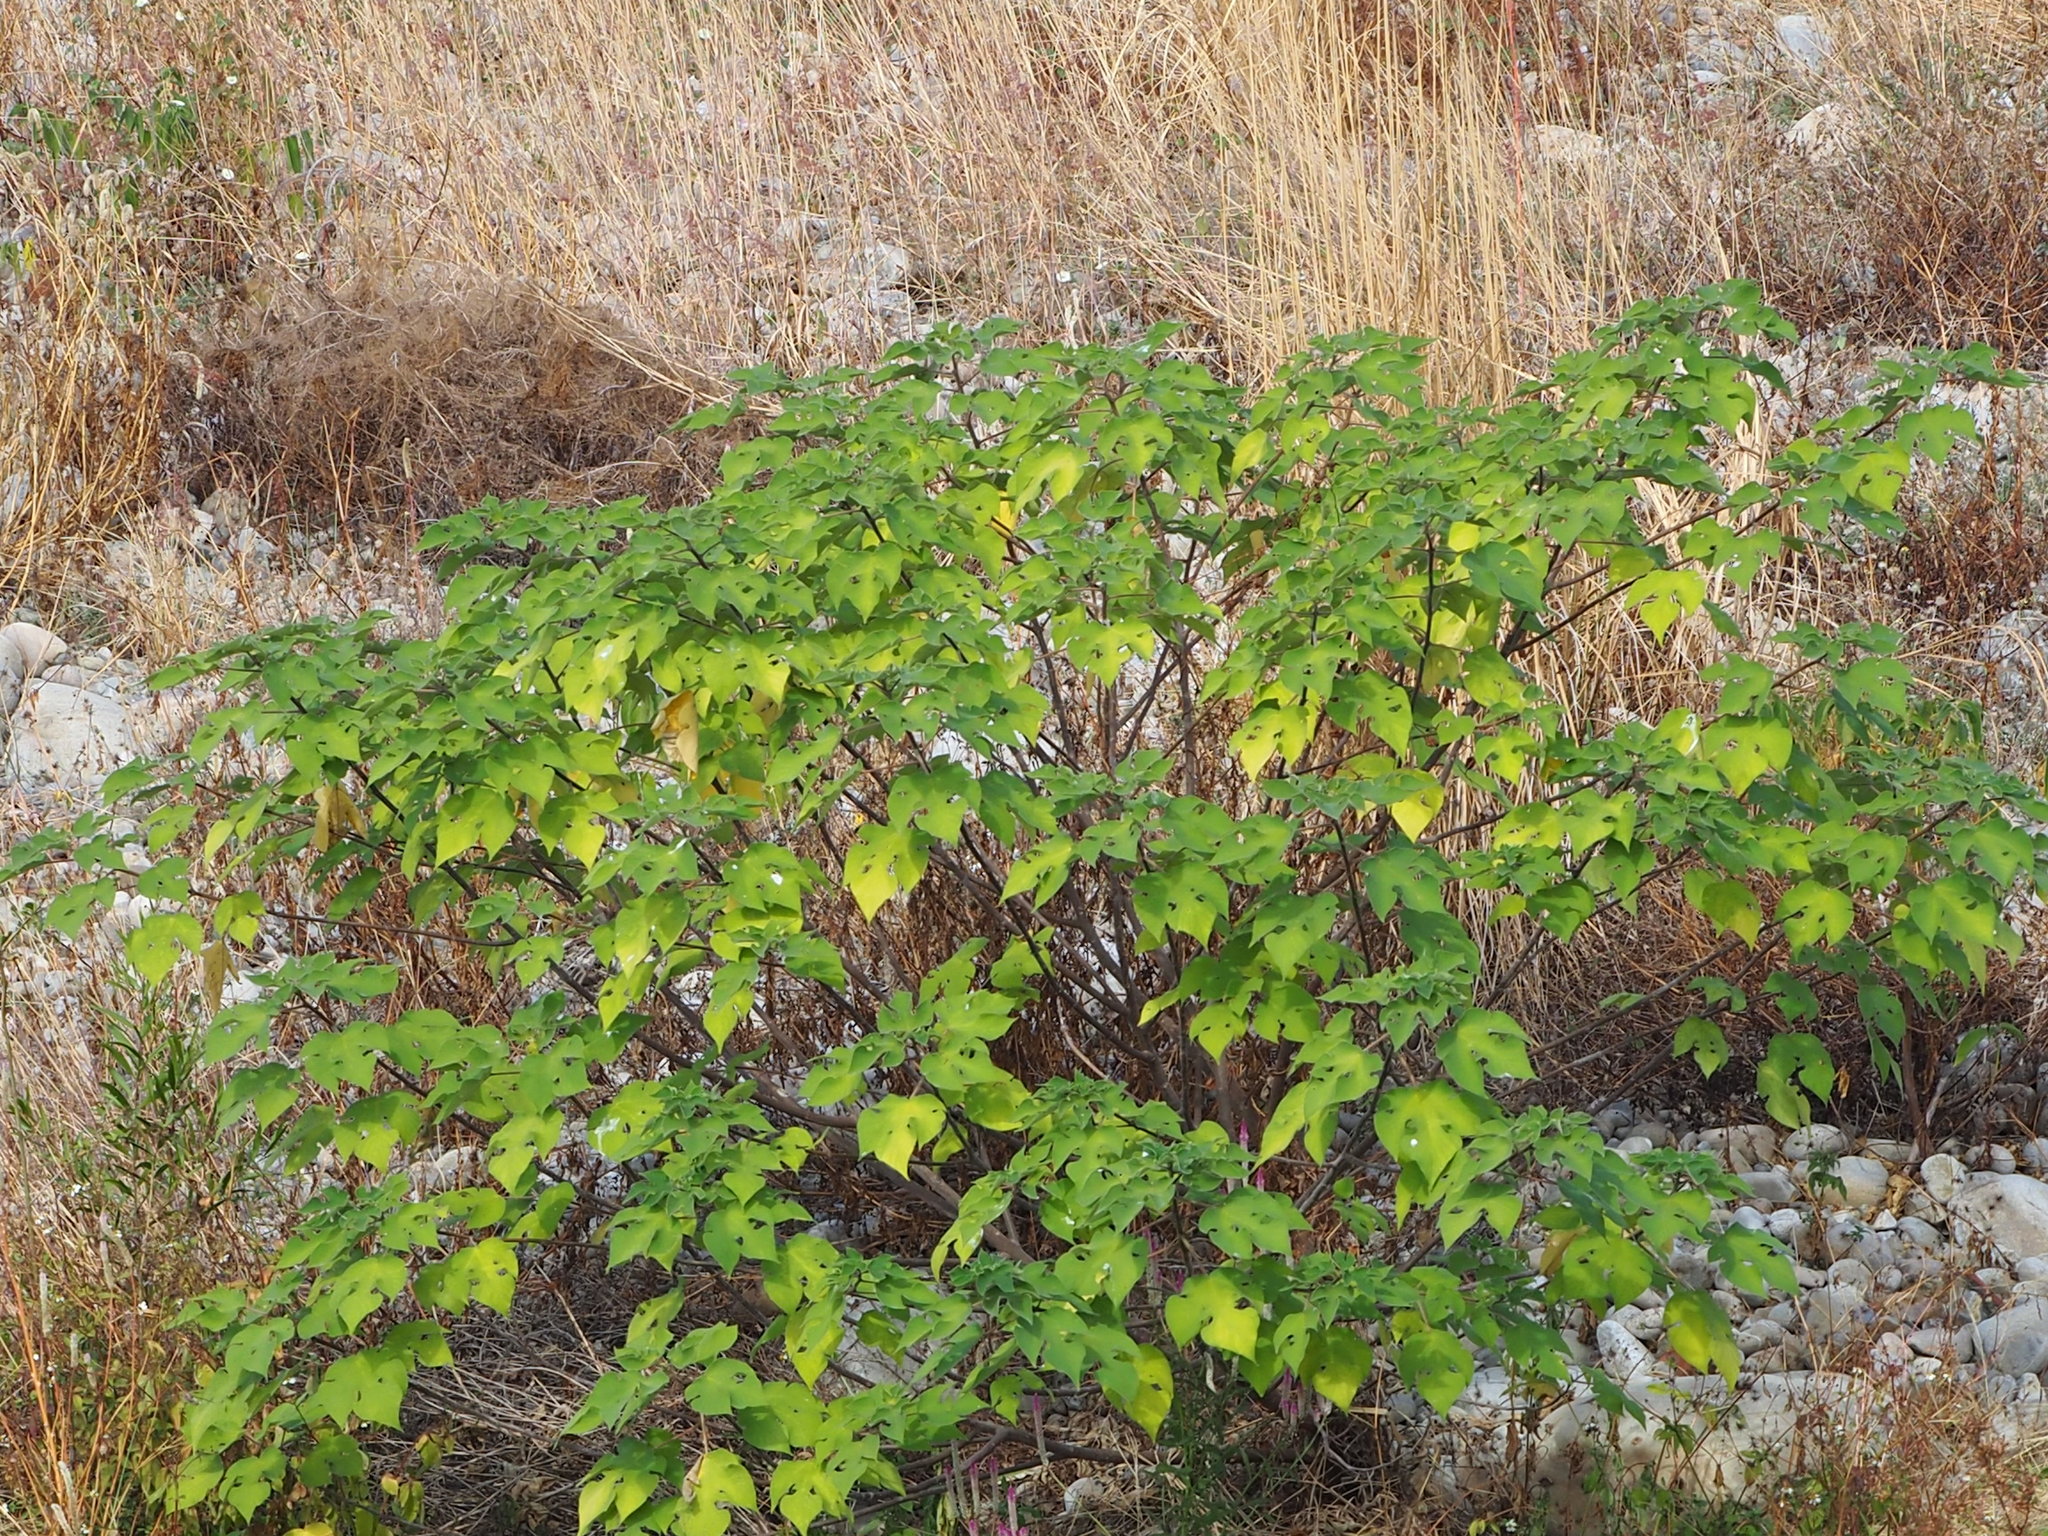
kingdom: Plantae
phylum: Tracheophyta
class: Magnoliopsida
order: Rosales
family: Moraceae
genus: Broussonetia
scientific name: Broussonetia papyrifera
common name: Paper mulberry
